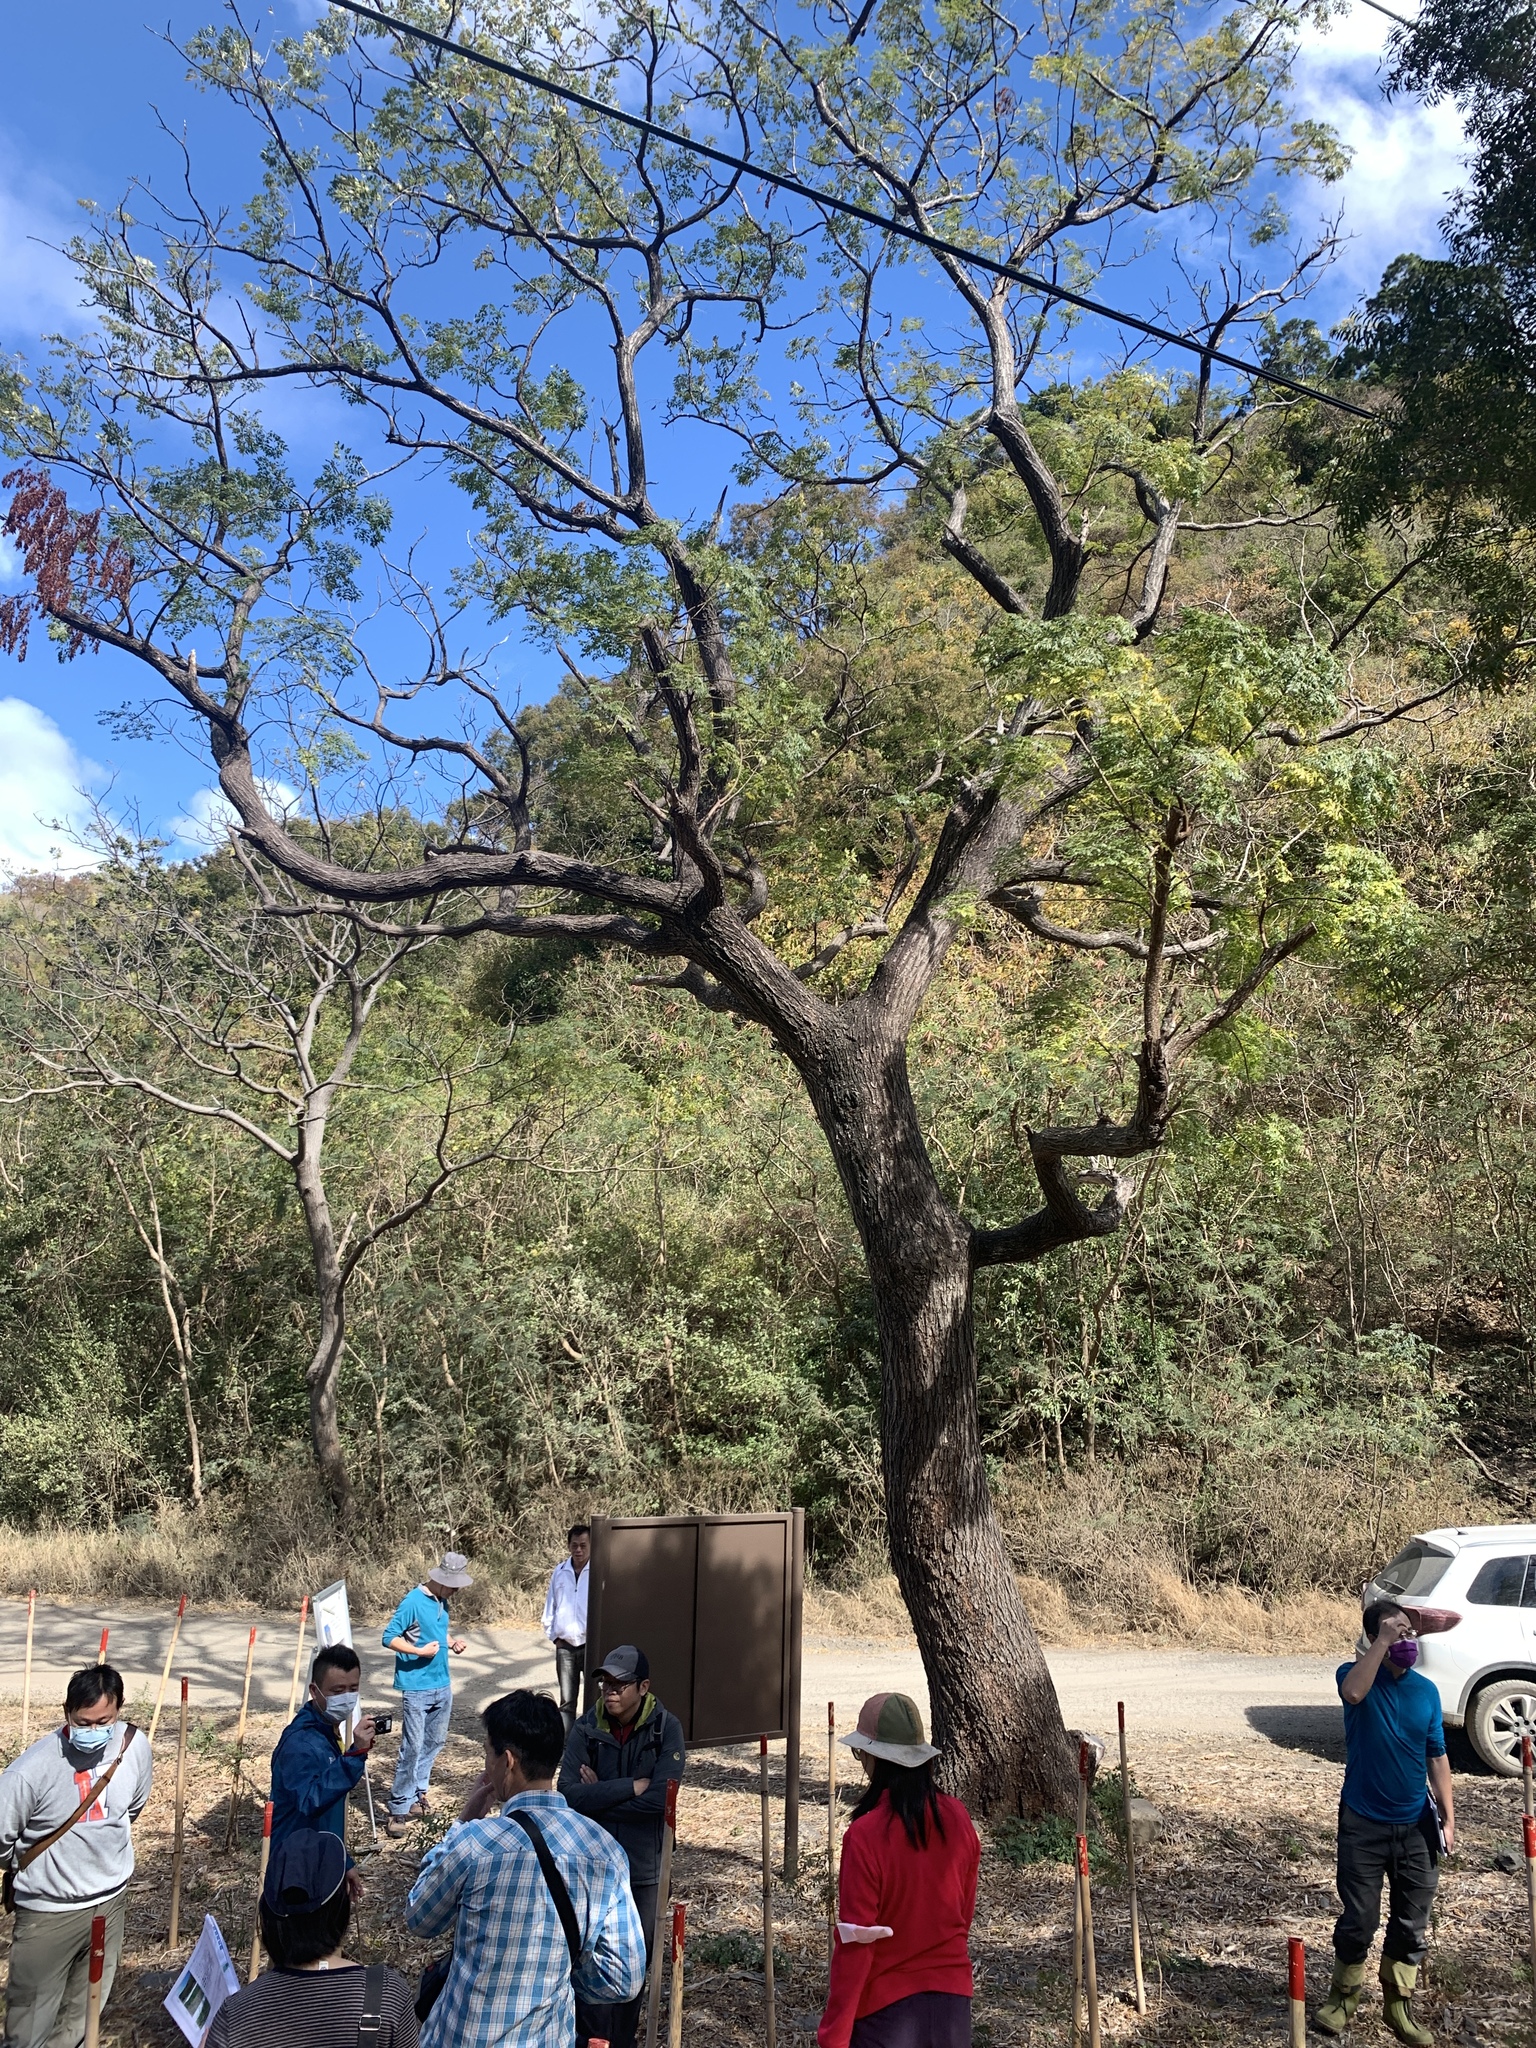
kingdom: Plantae
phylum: Tracheophyta
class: Magnoliopsida
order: Sapindales
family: Meliaceae
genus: Melia
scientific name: Melia azedarach
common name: Chinaberrytree
